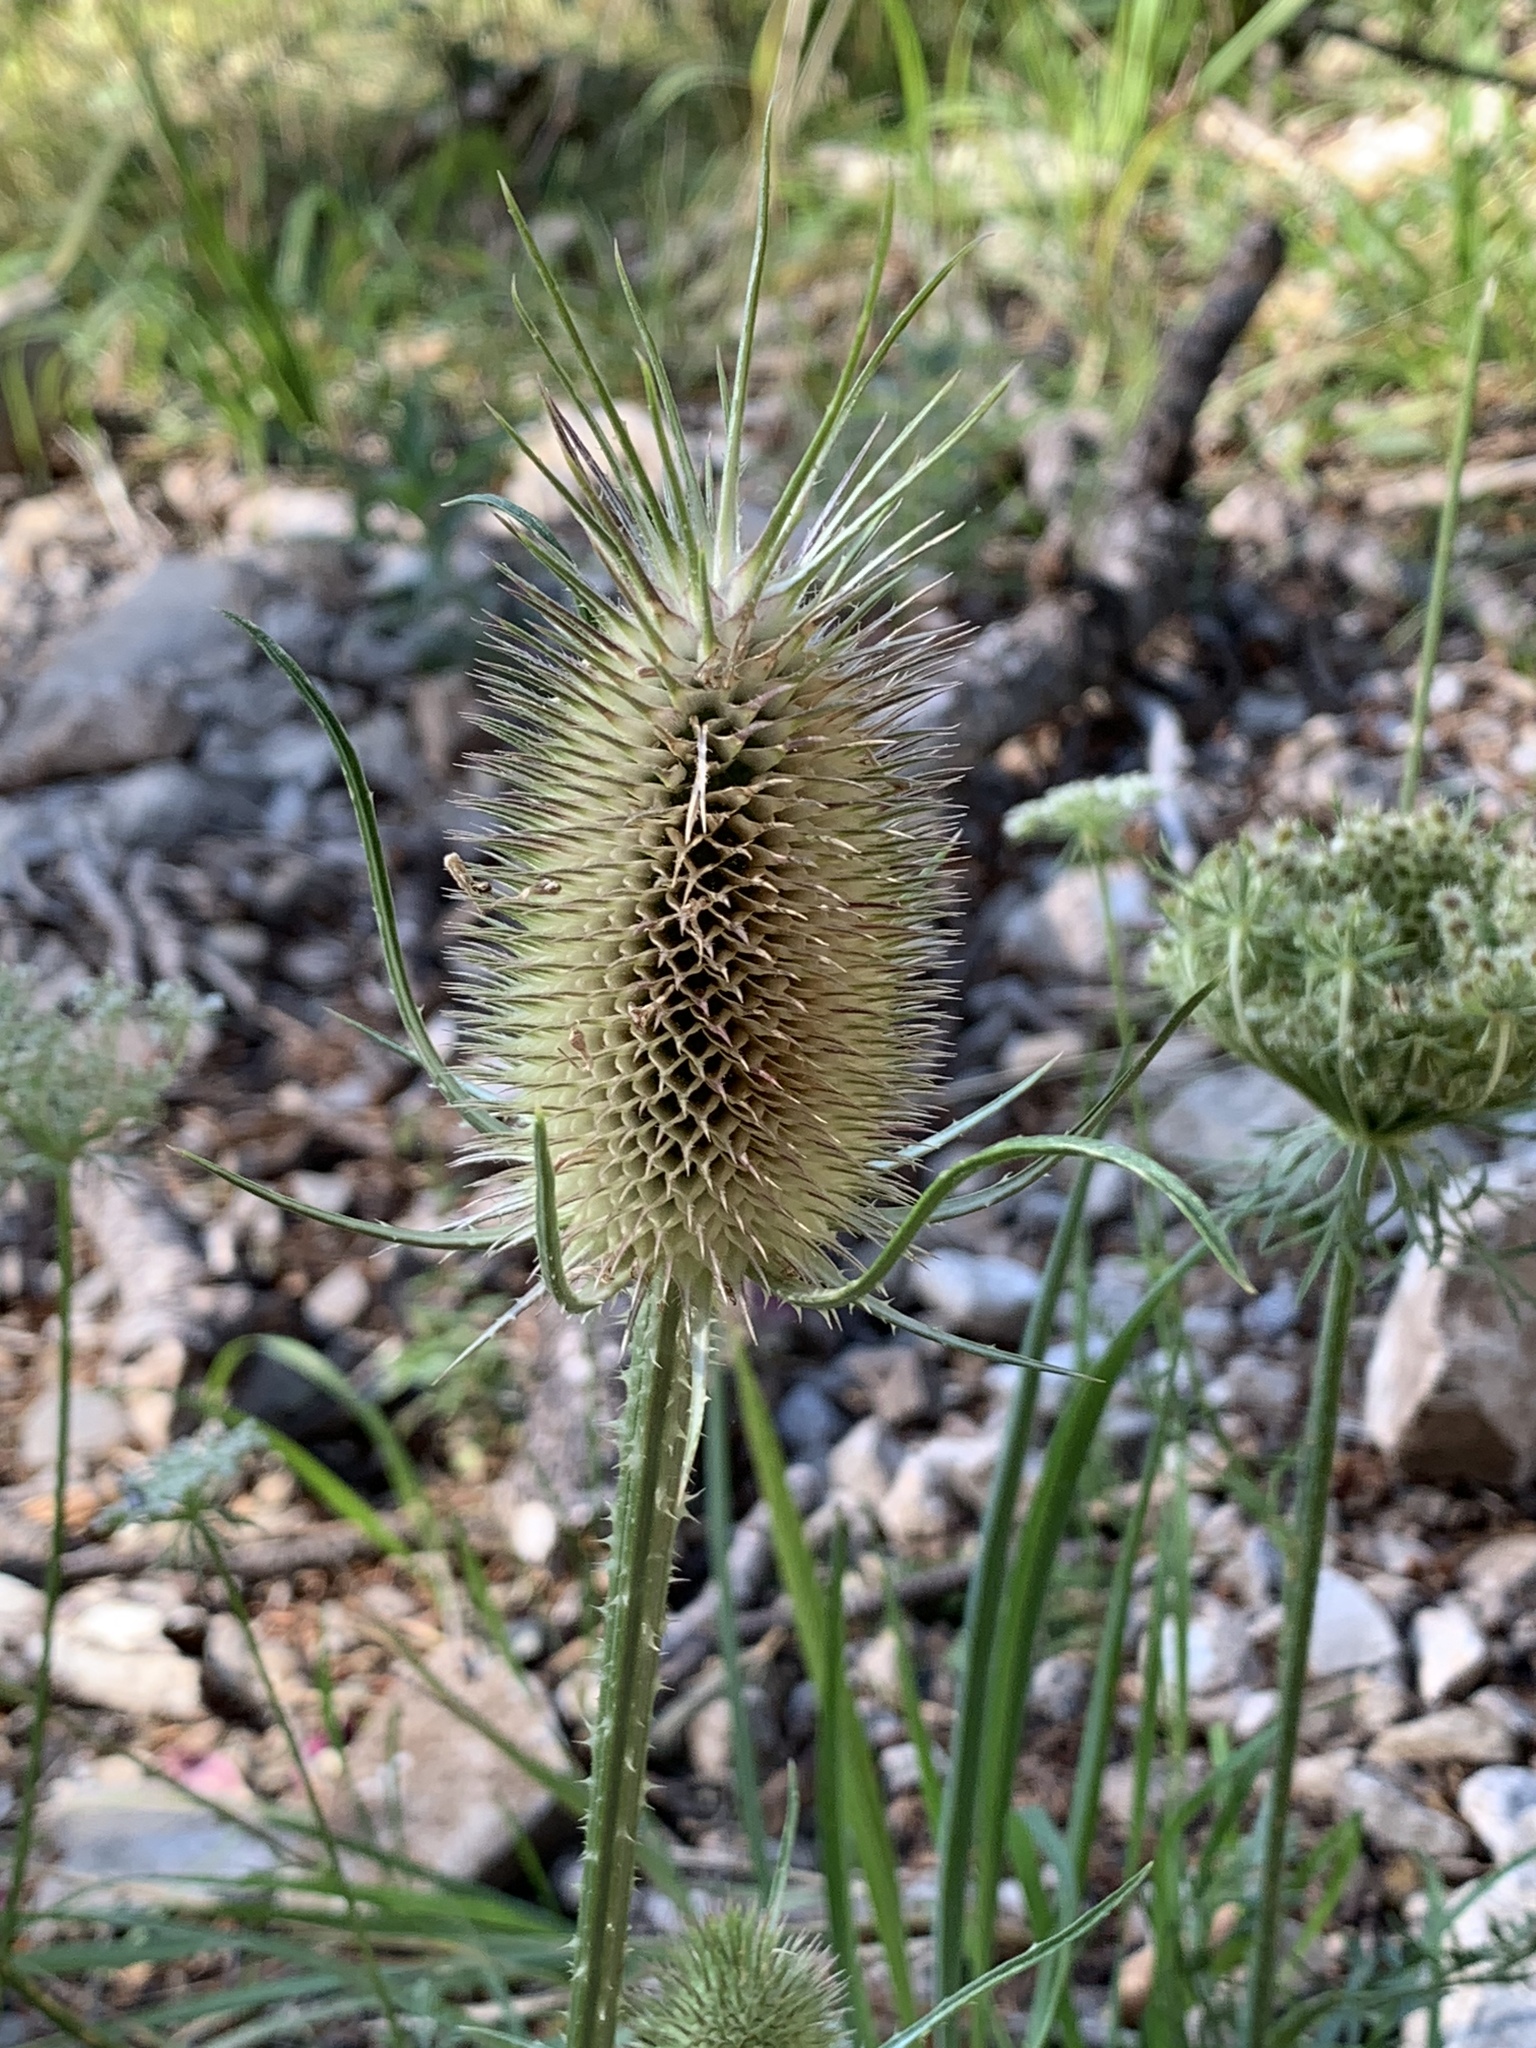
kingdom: Plantae
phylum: Tracheophyta
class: Magnoliopsida
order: Dipsacales
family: Caprifoliaceae
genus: Dipsacus
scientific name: Dipsacus fullonum
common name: Teasel
